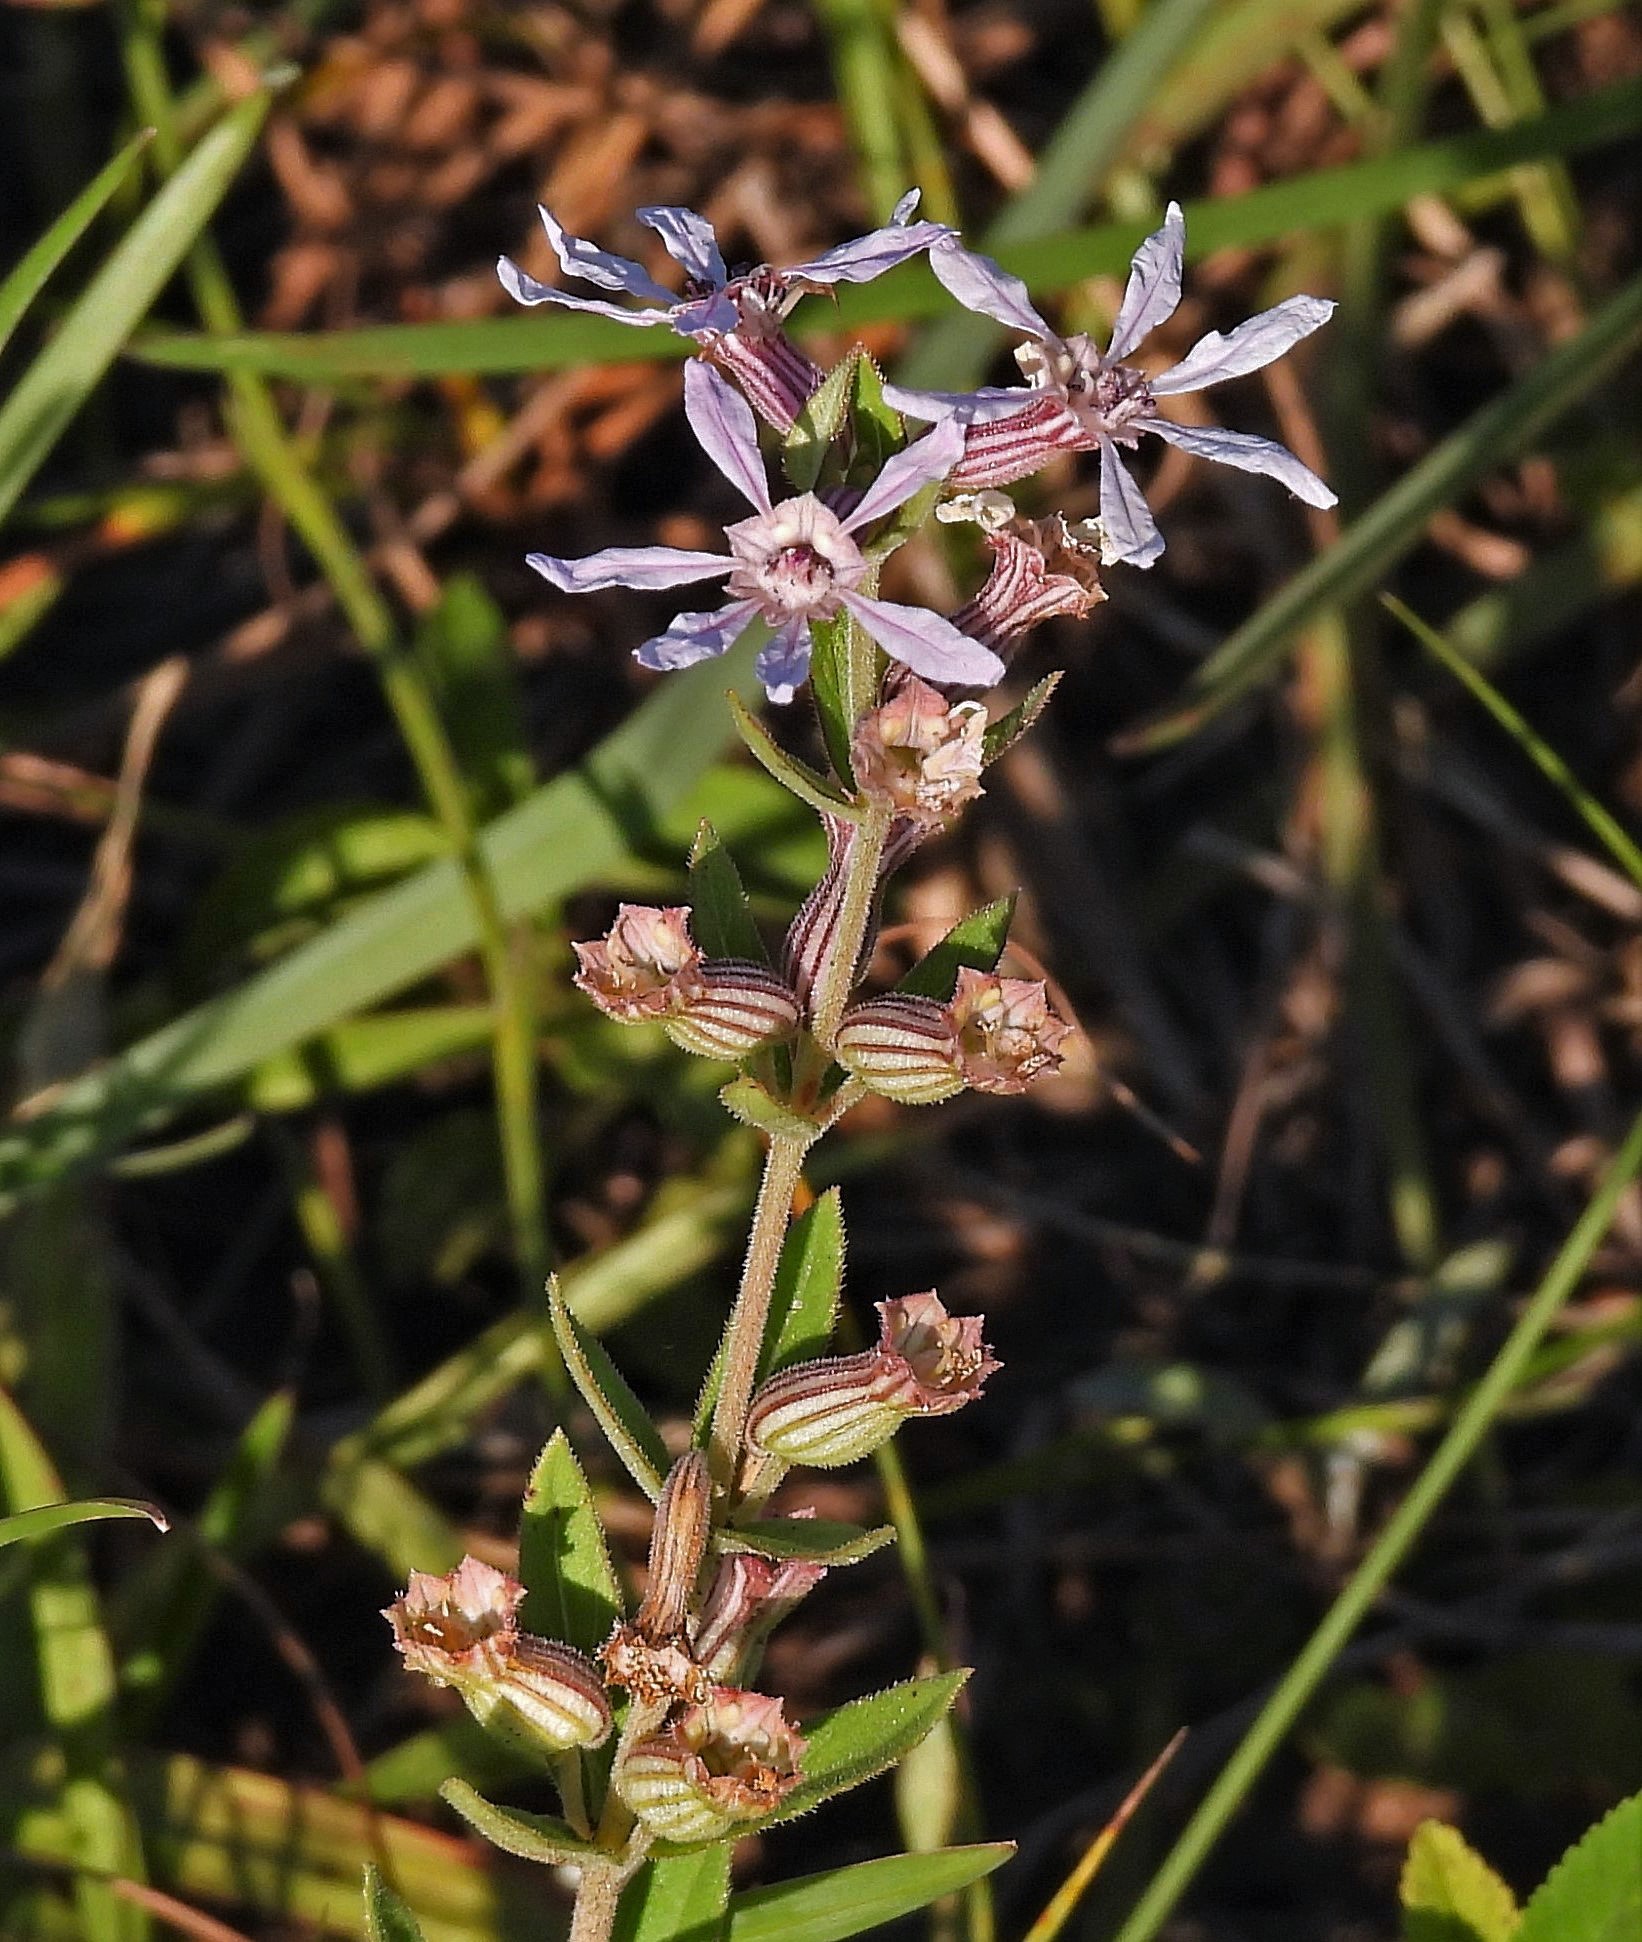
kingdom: Plantae
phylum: Tracheophyta
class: Magnoliopsida
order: Myrtales
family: Lythraceae
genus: Cuphea
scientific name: Cuphea lysimachioides
